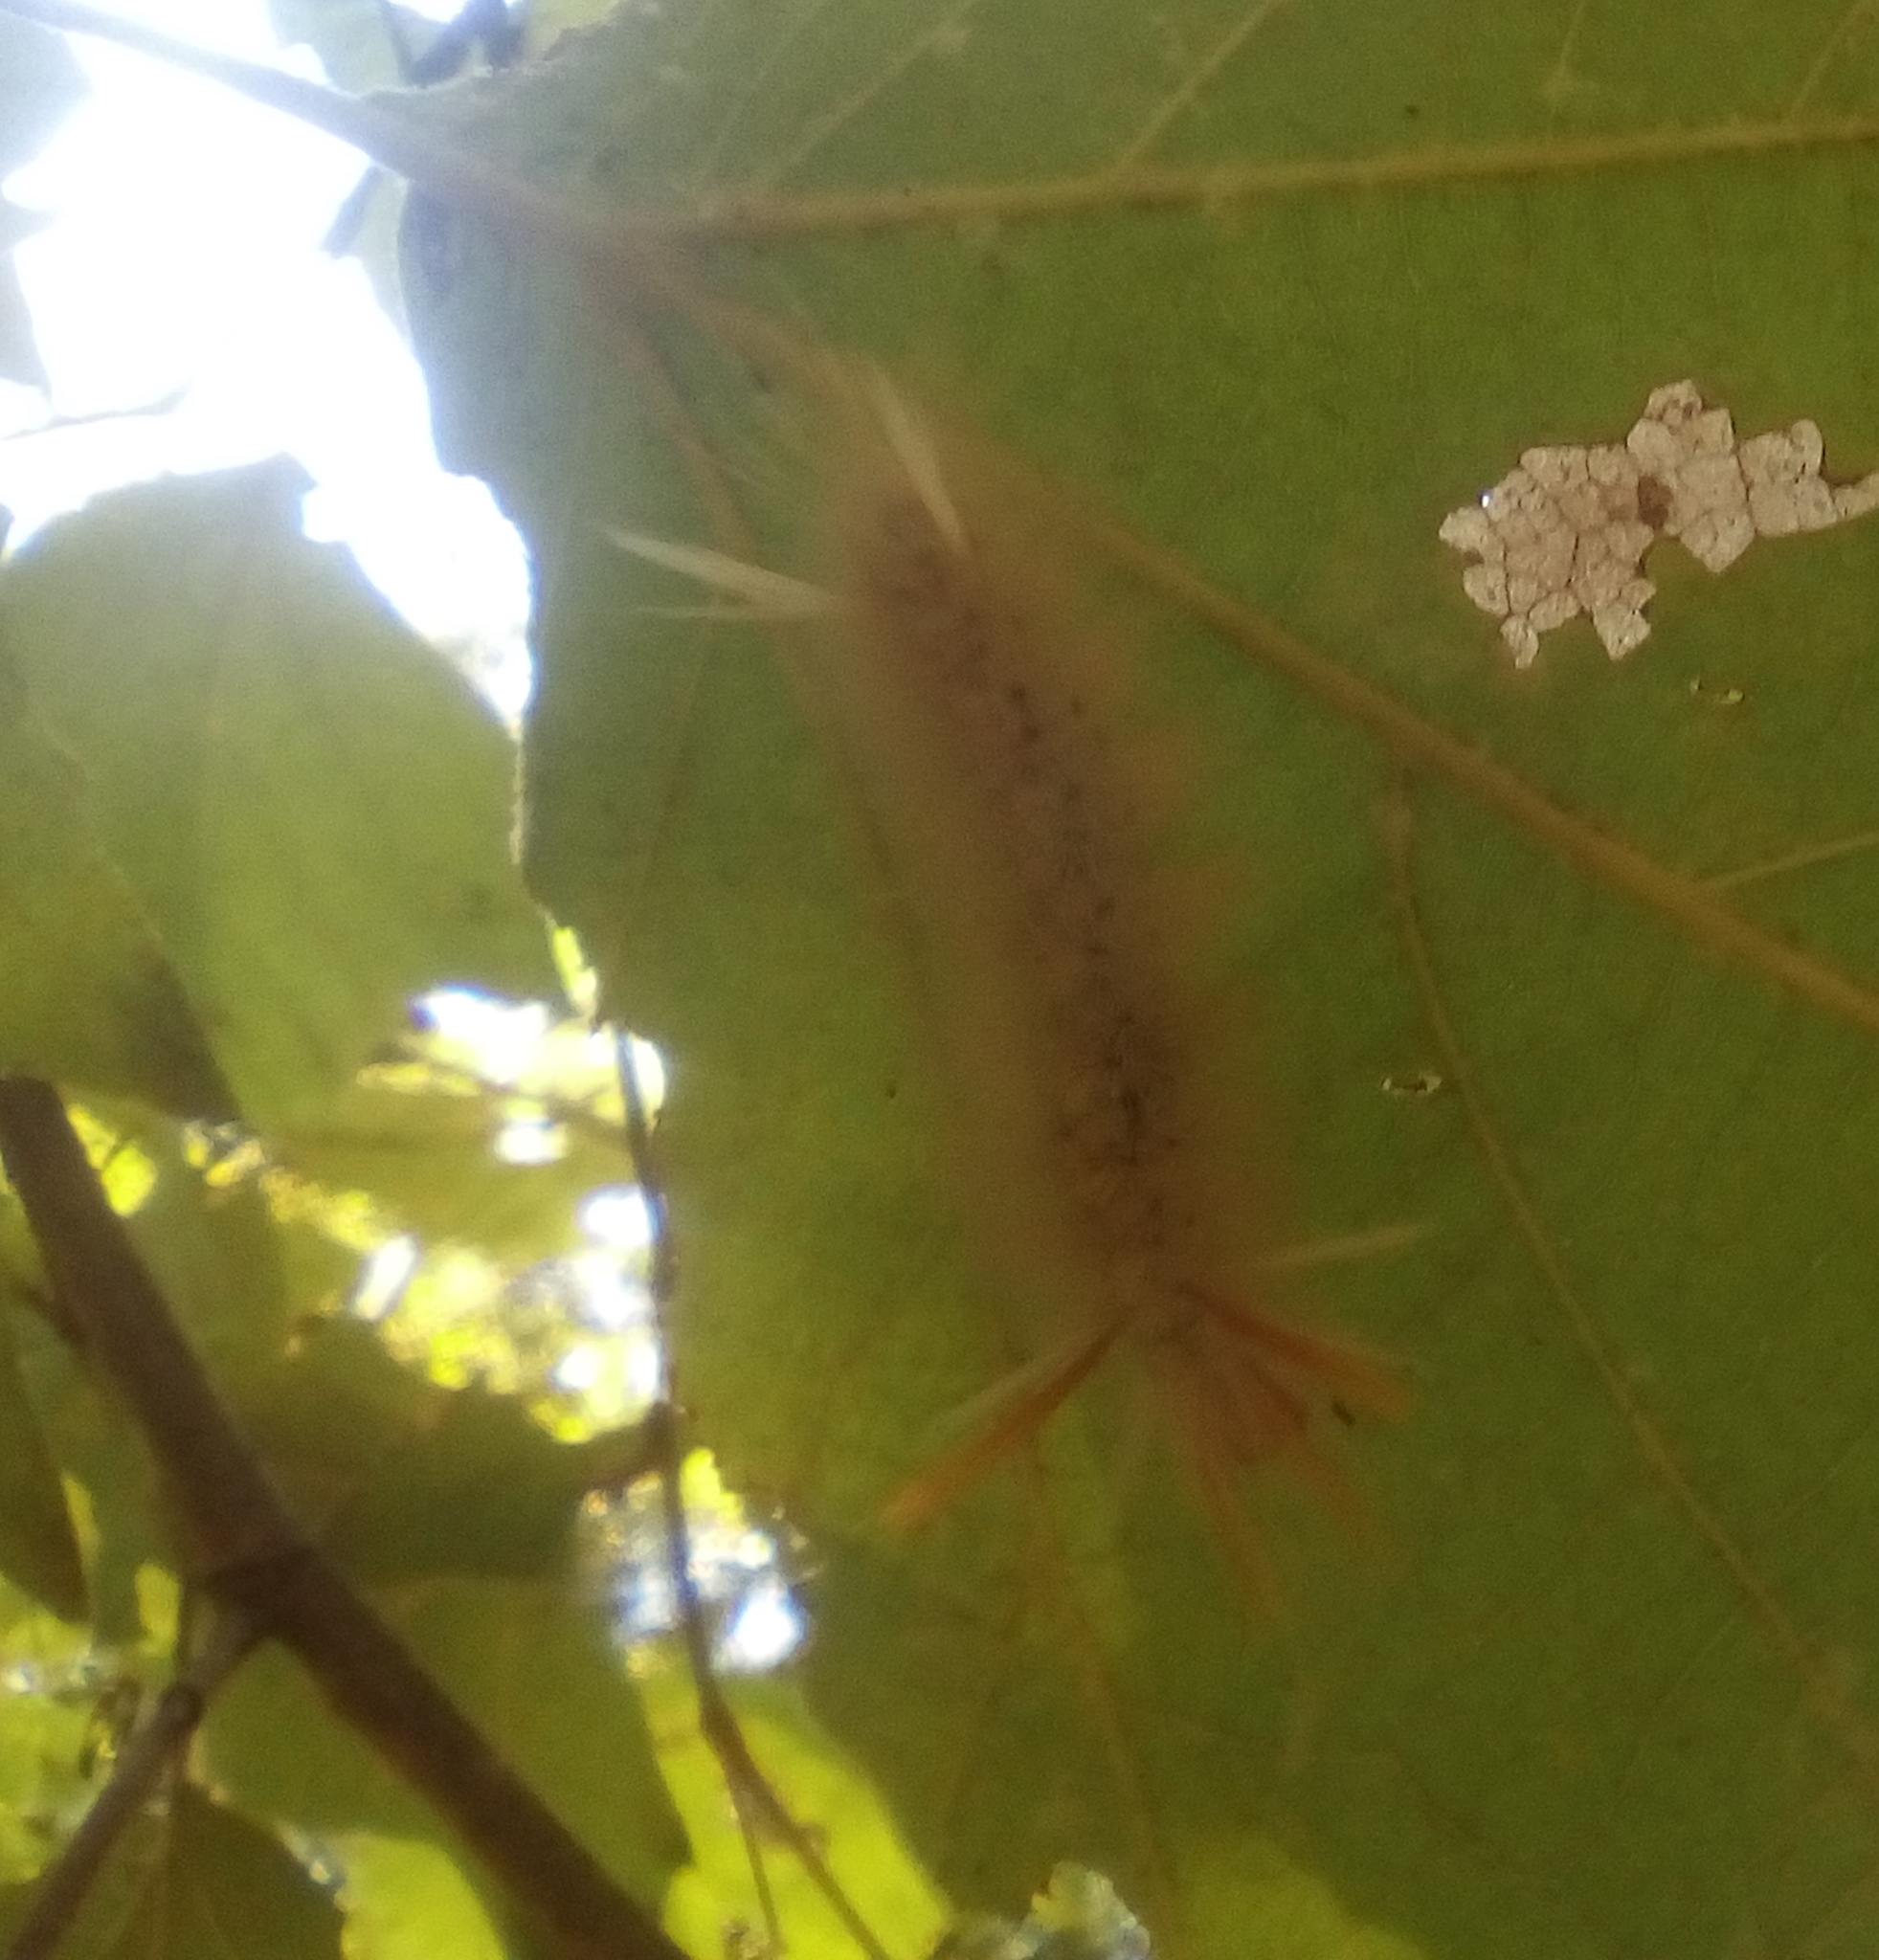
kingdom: Animalia
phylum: Arthropoda
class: Insecta
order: Lepidoptera
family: Erebidae
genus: Halysidota
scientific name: Halysidota harrisii
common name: Sycamore tussock moth
